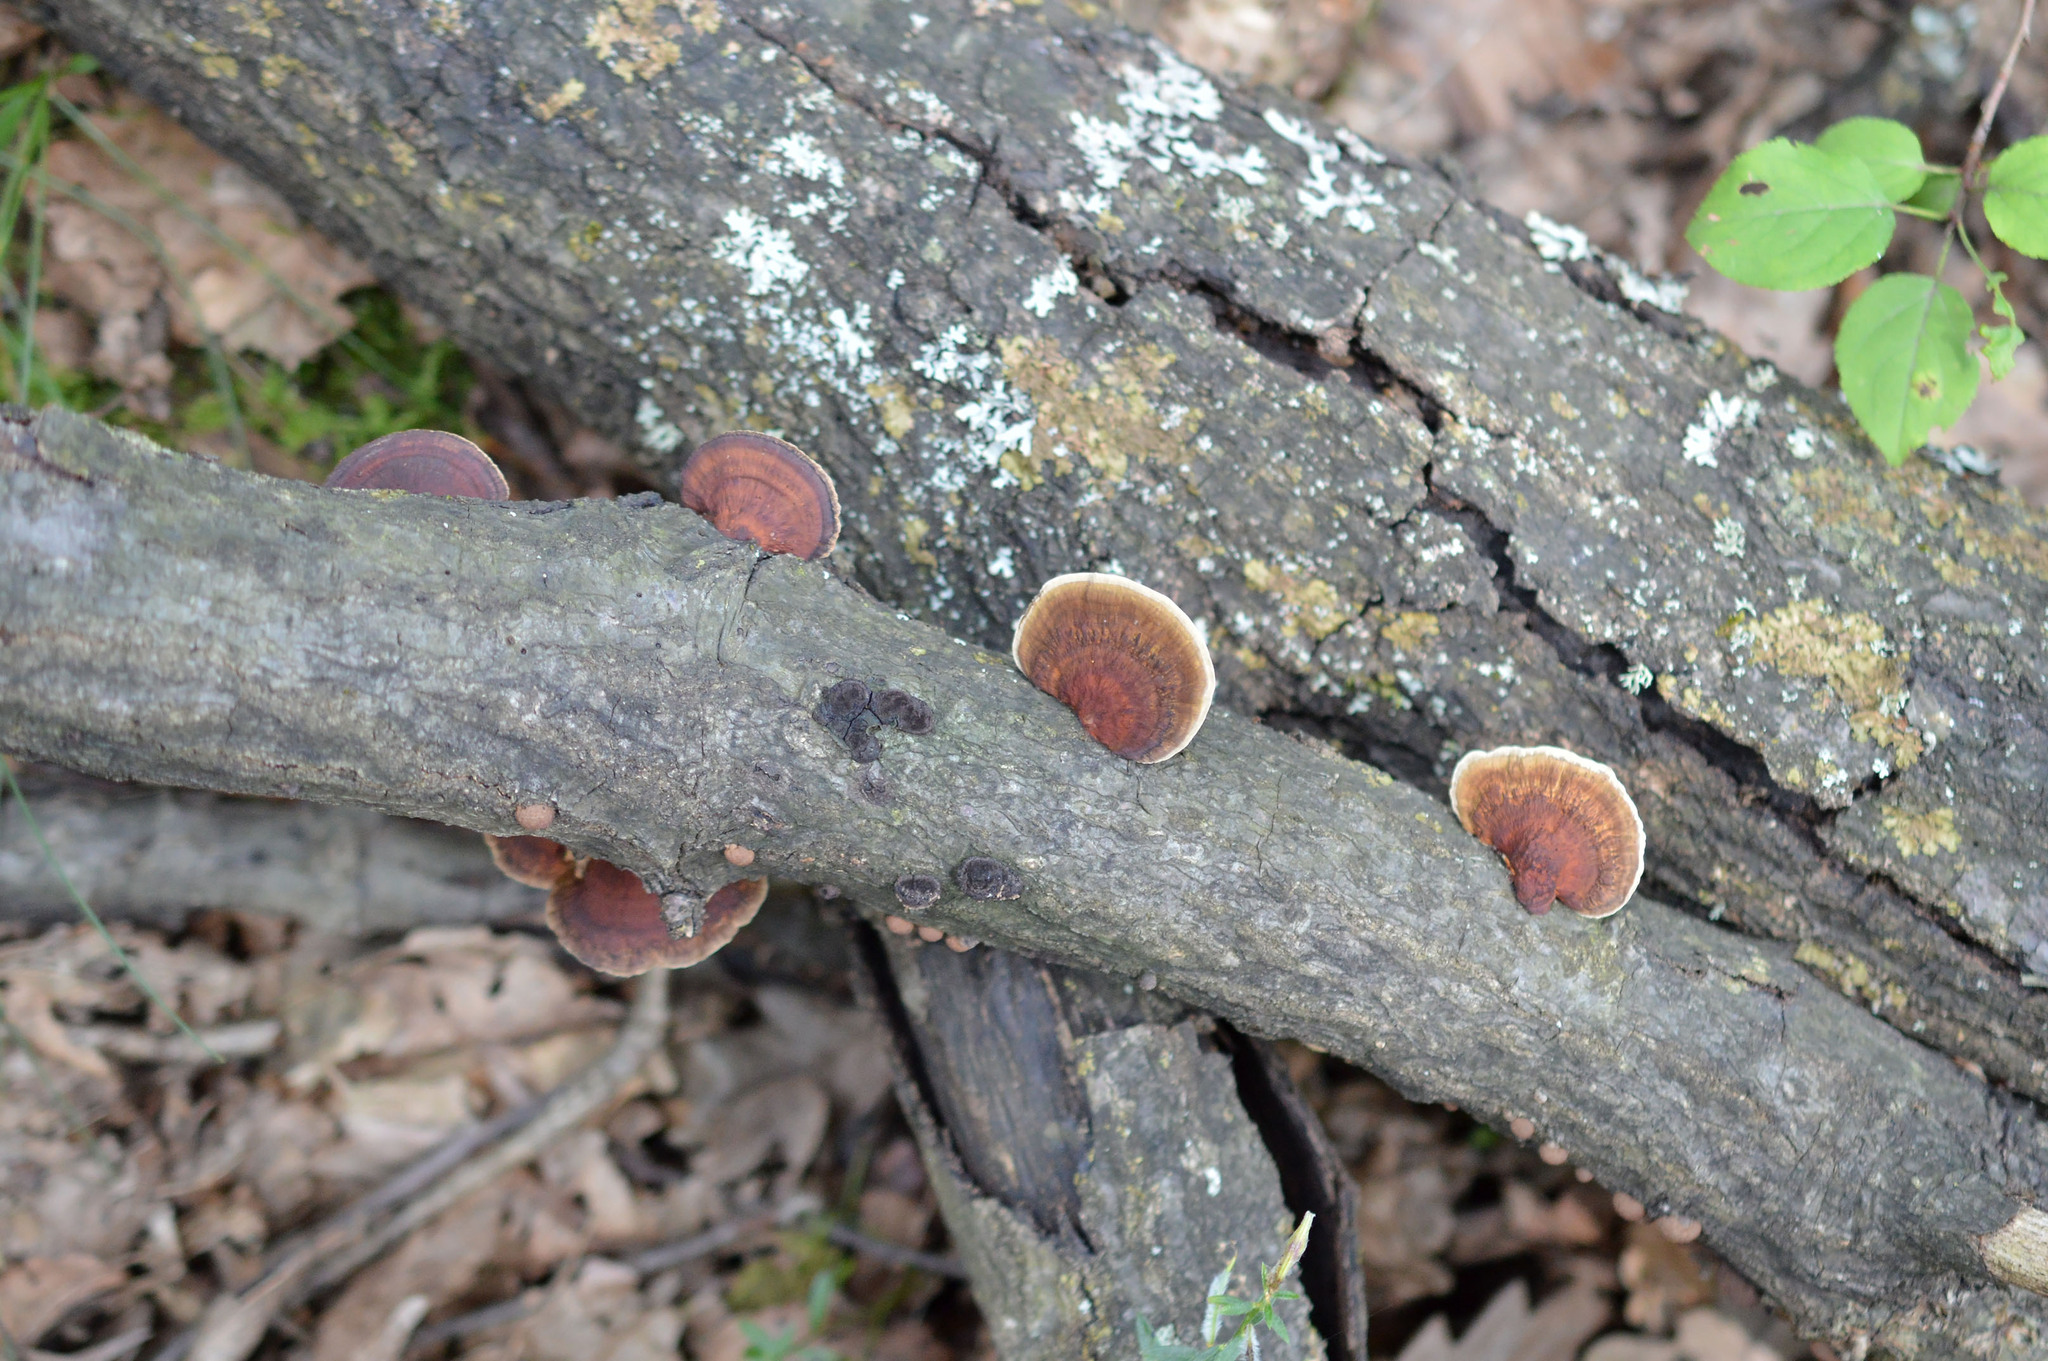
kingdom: Fungi
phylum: Basidiomycota
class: Agaricomycetes
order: Polyporales
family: Polyporaceae
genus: Daedaleopsis
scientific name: Daedaleopsis confragosa
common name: Blushing bracket
